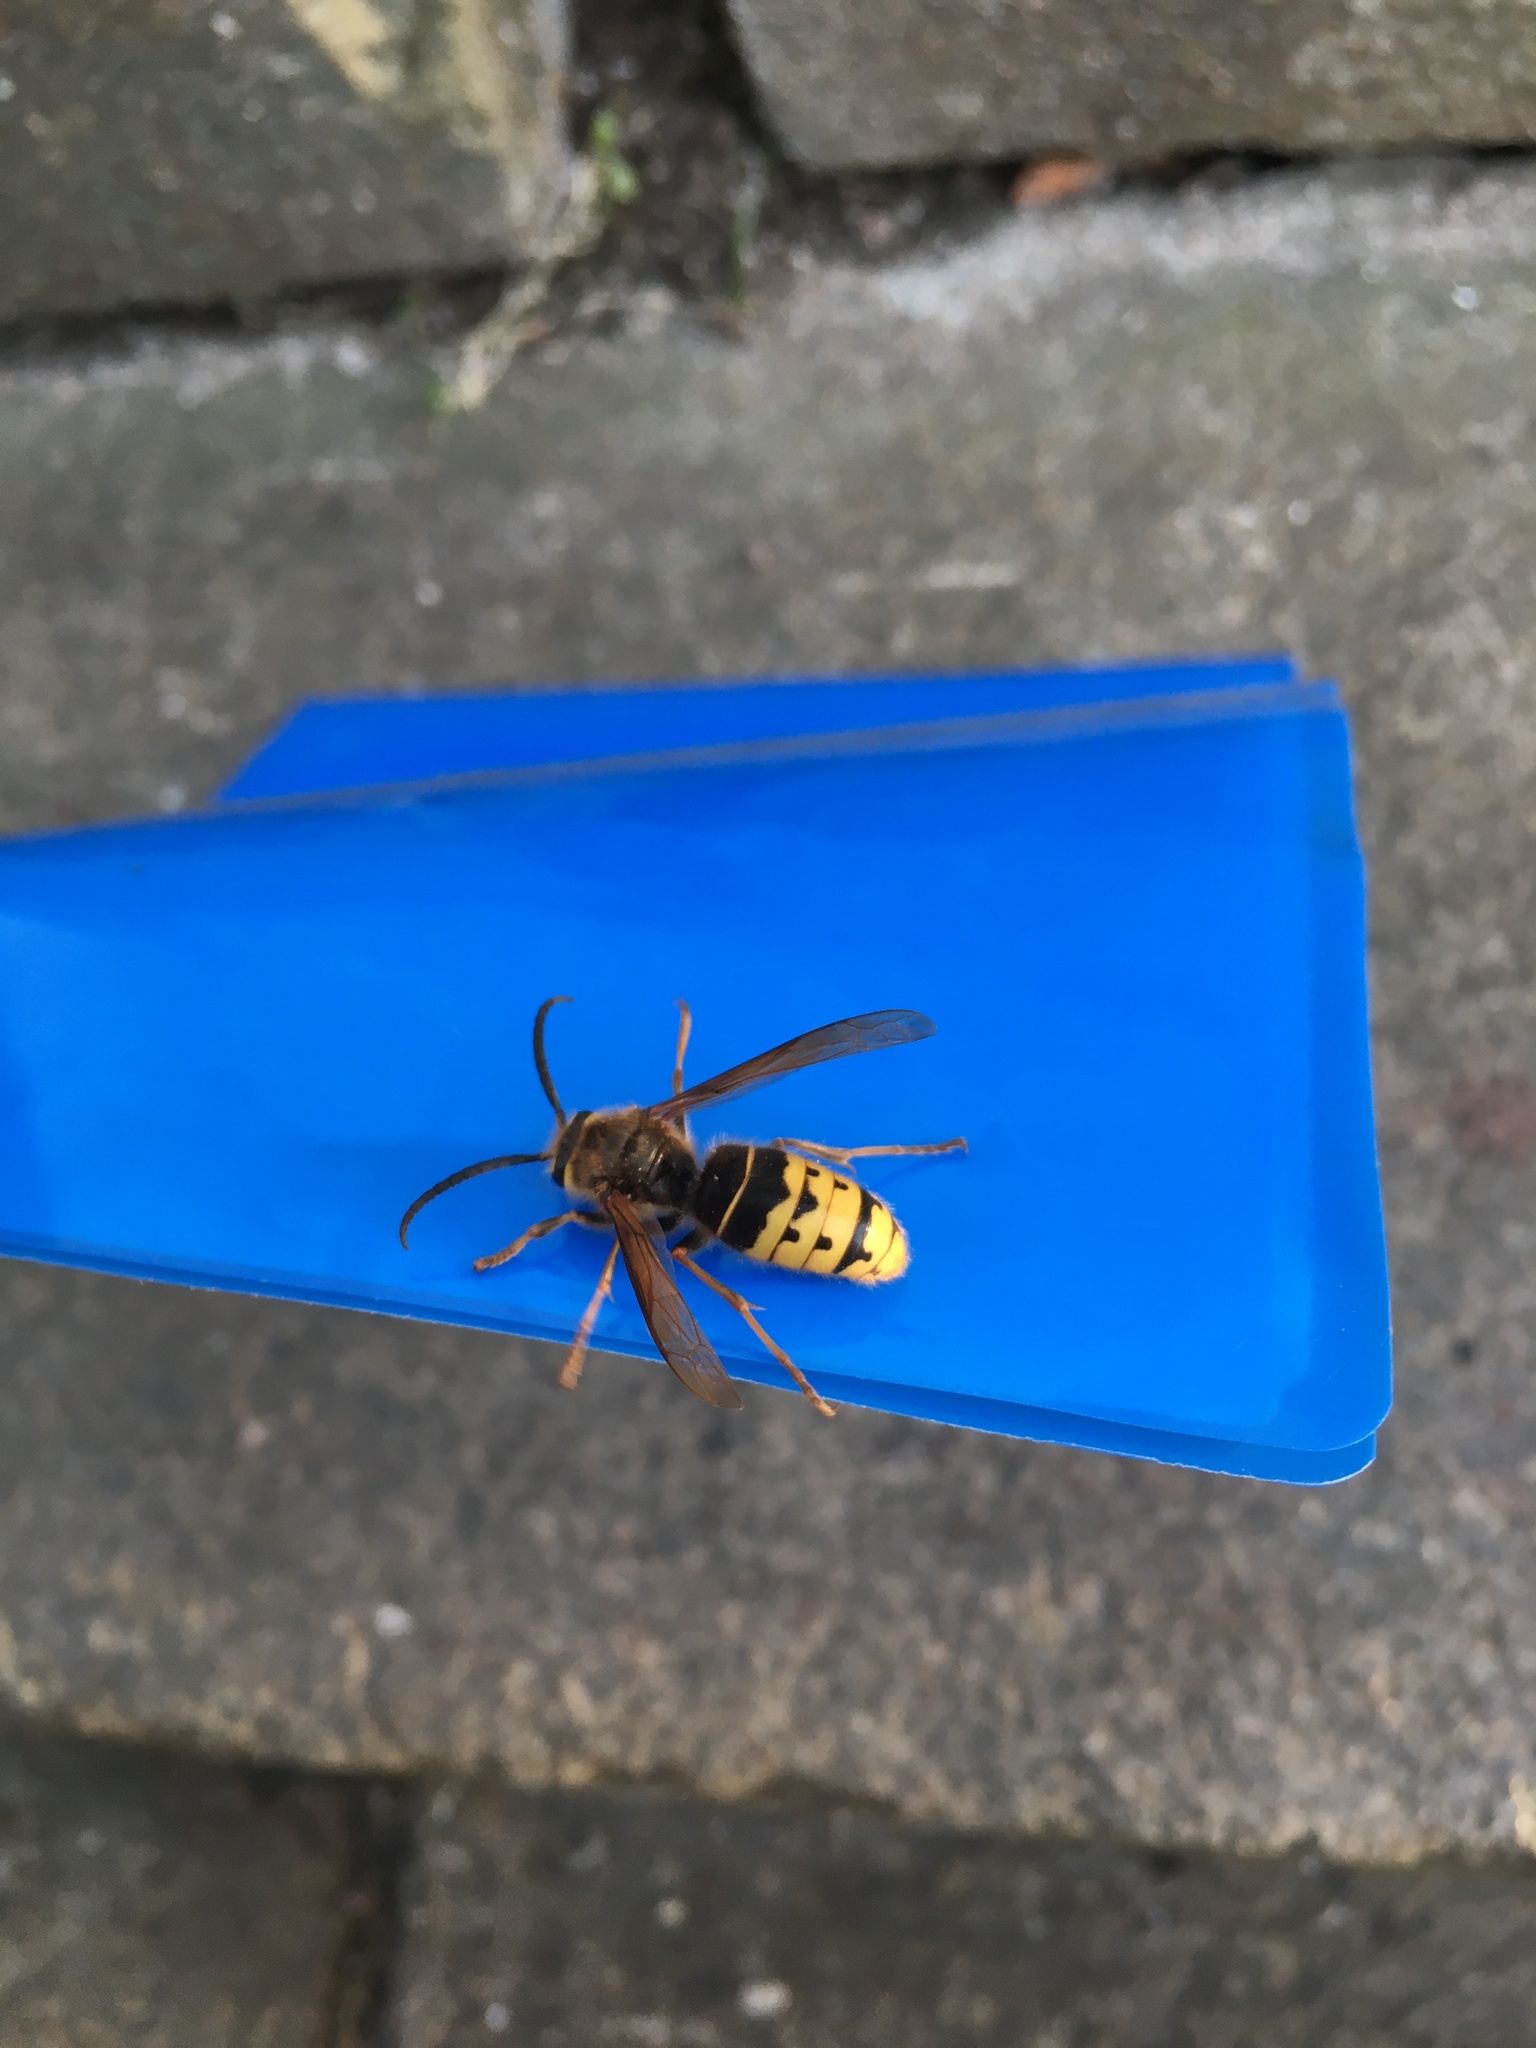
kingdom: Animalia
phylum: Arthropoda
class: Insecta
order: Hymenoptera
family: Vespidae
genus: Vespa
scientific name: Vespa crabro
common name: Hornet
